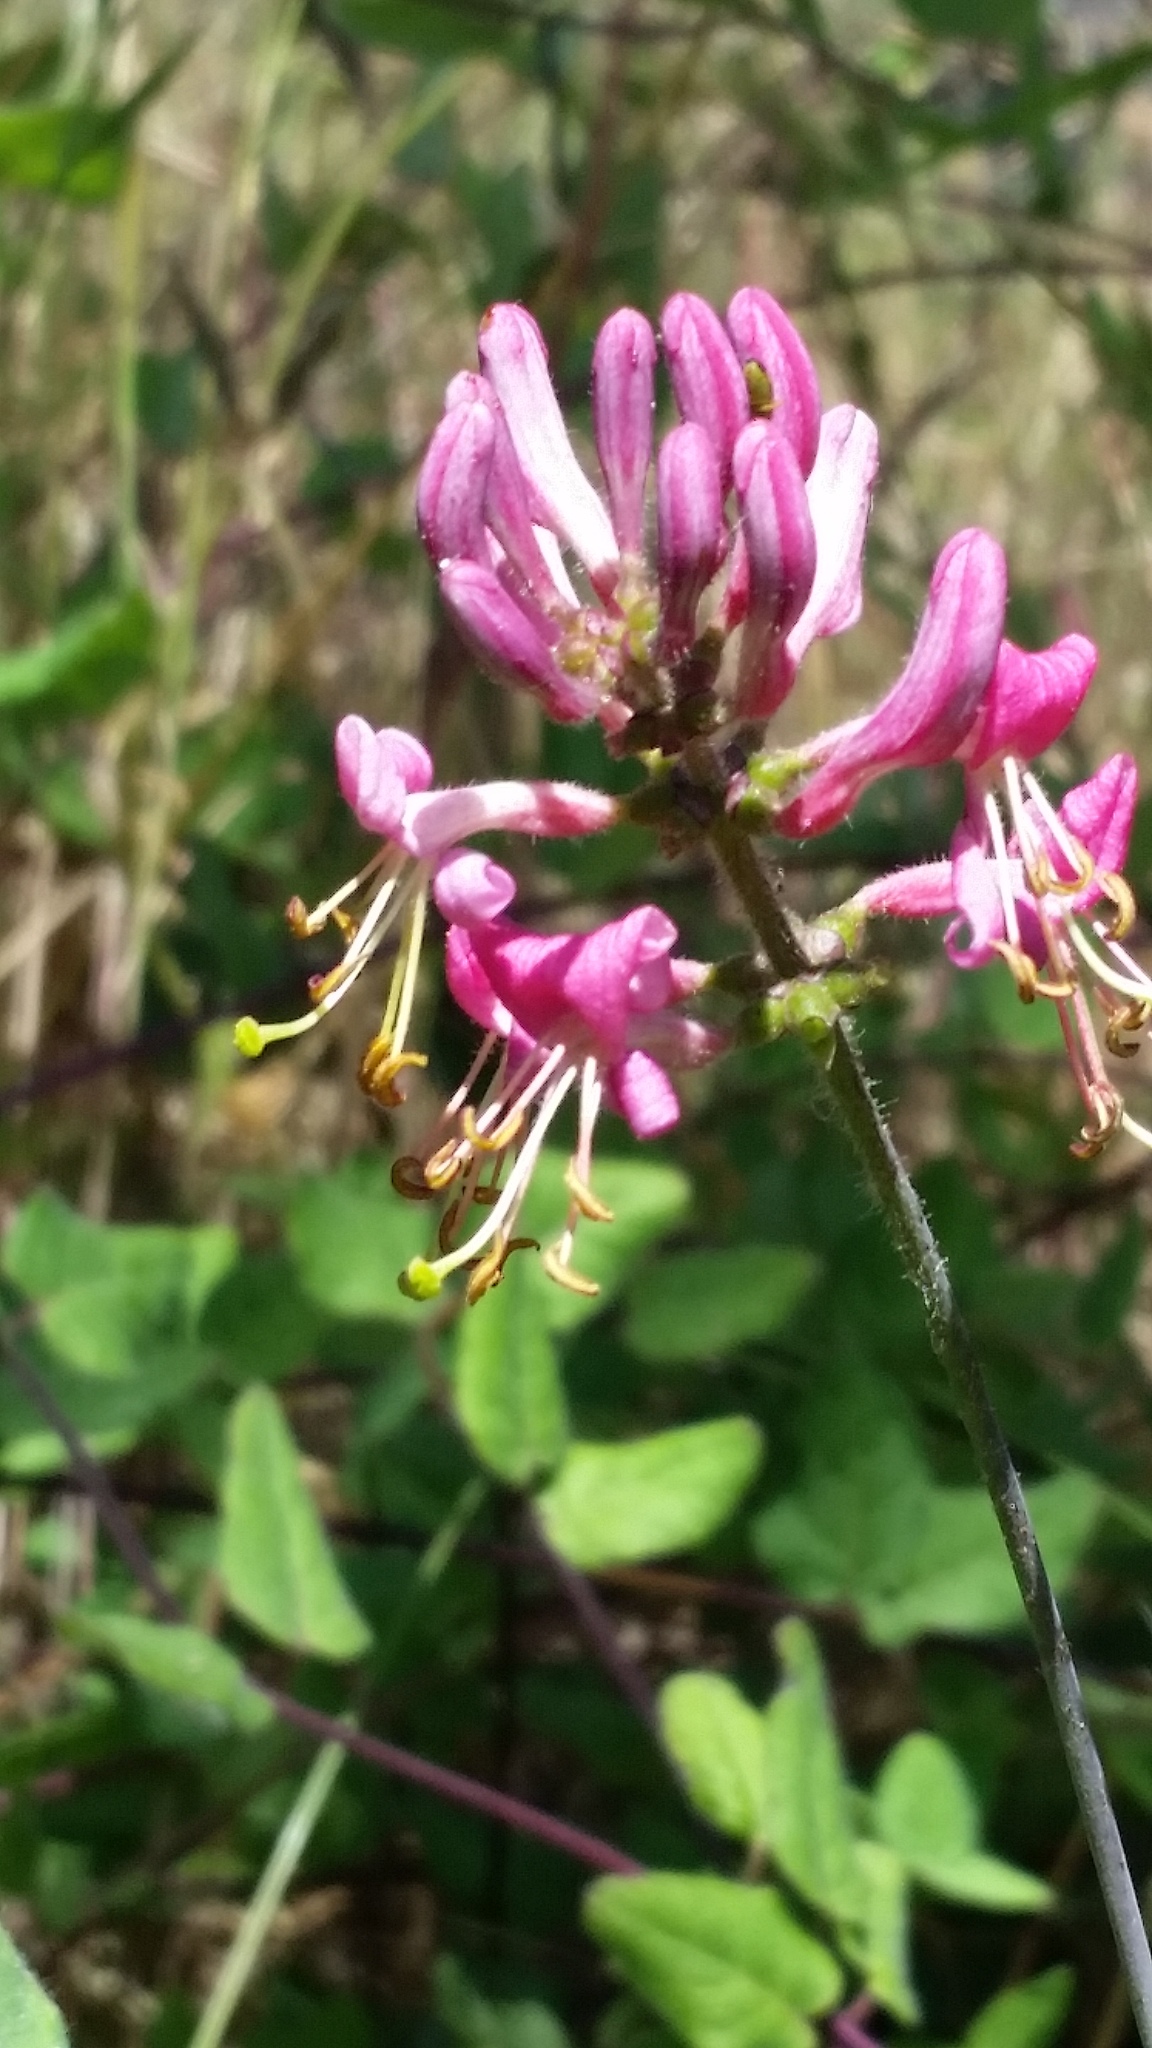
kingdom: Plantae
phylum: Tracheophyta
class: Magnoliopsida
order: Dipsacales
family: Caprifoliaceae
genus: Lonicera
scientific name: Lonicera hispidula
